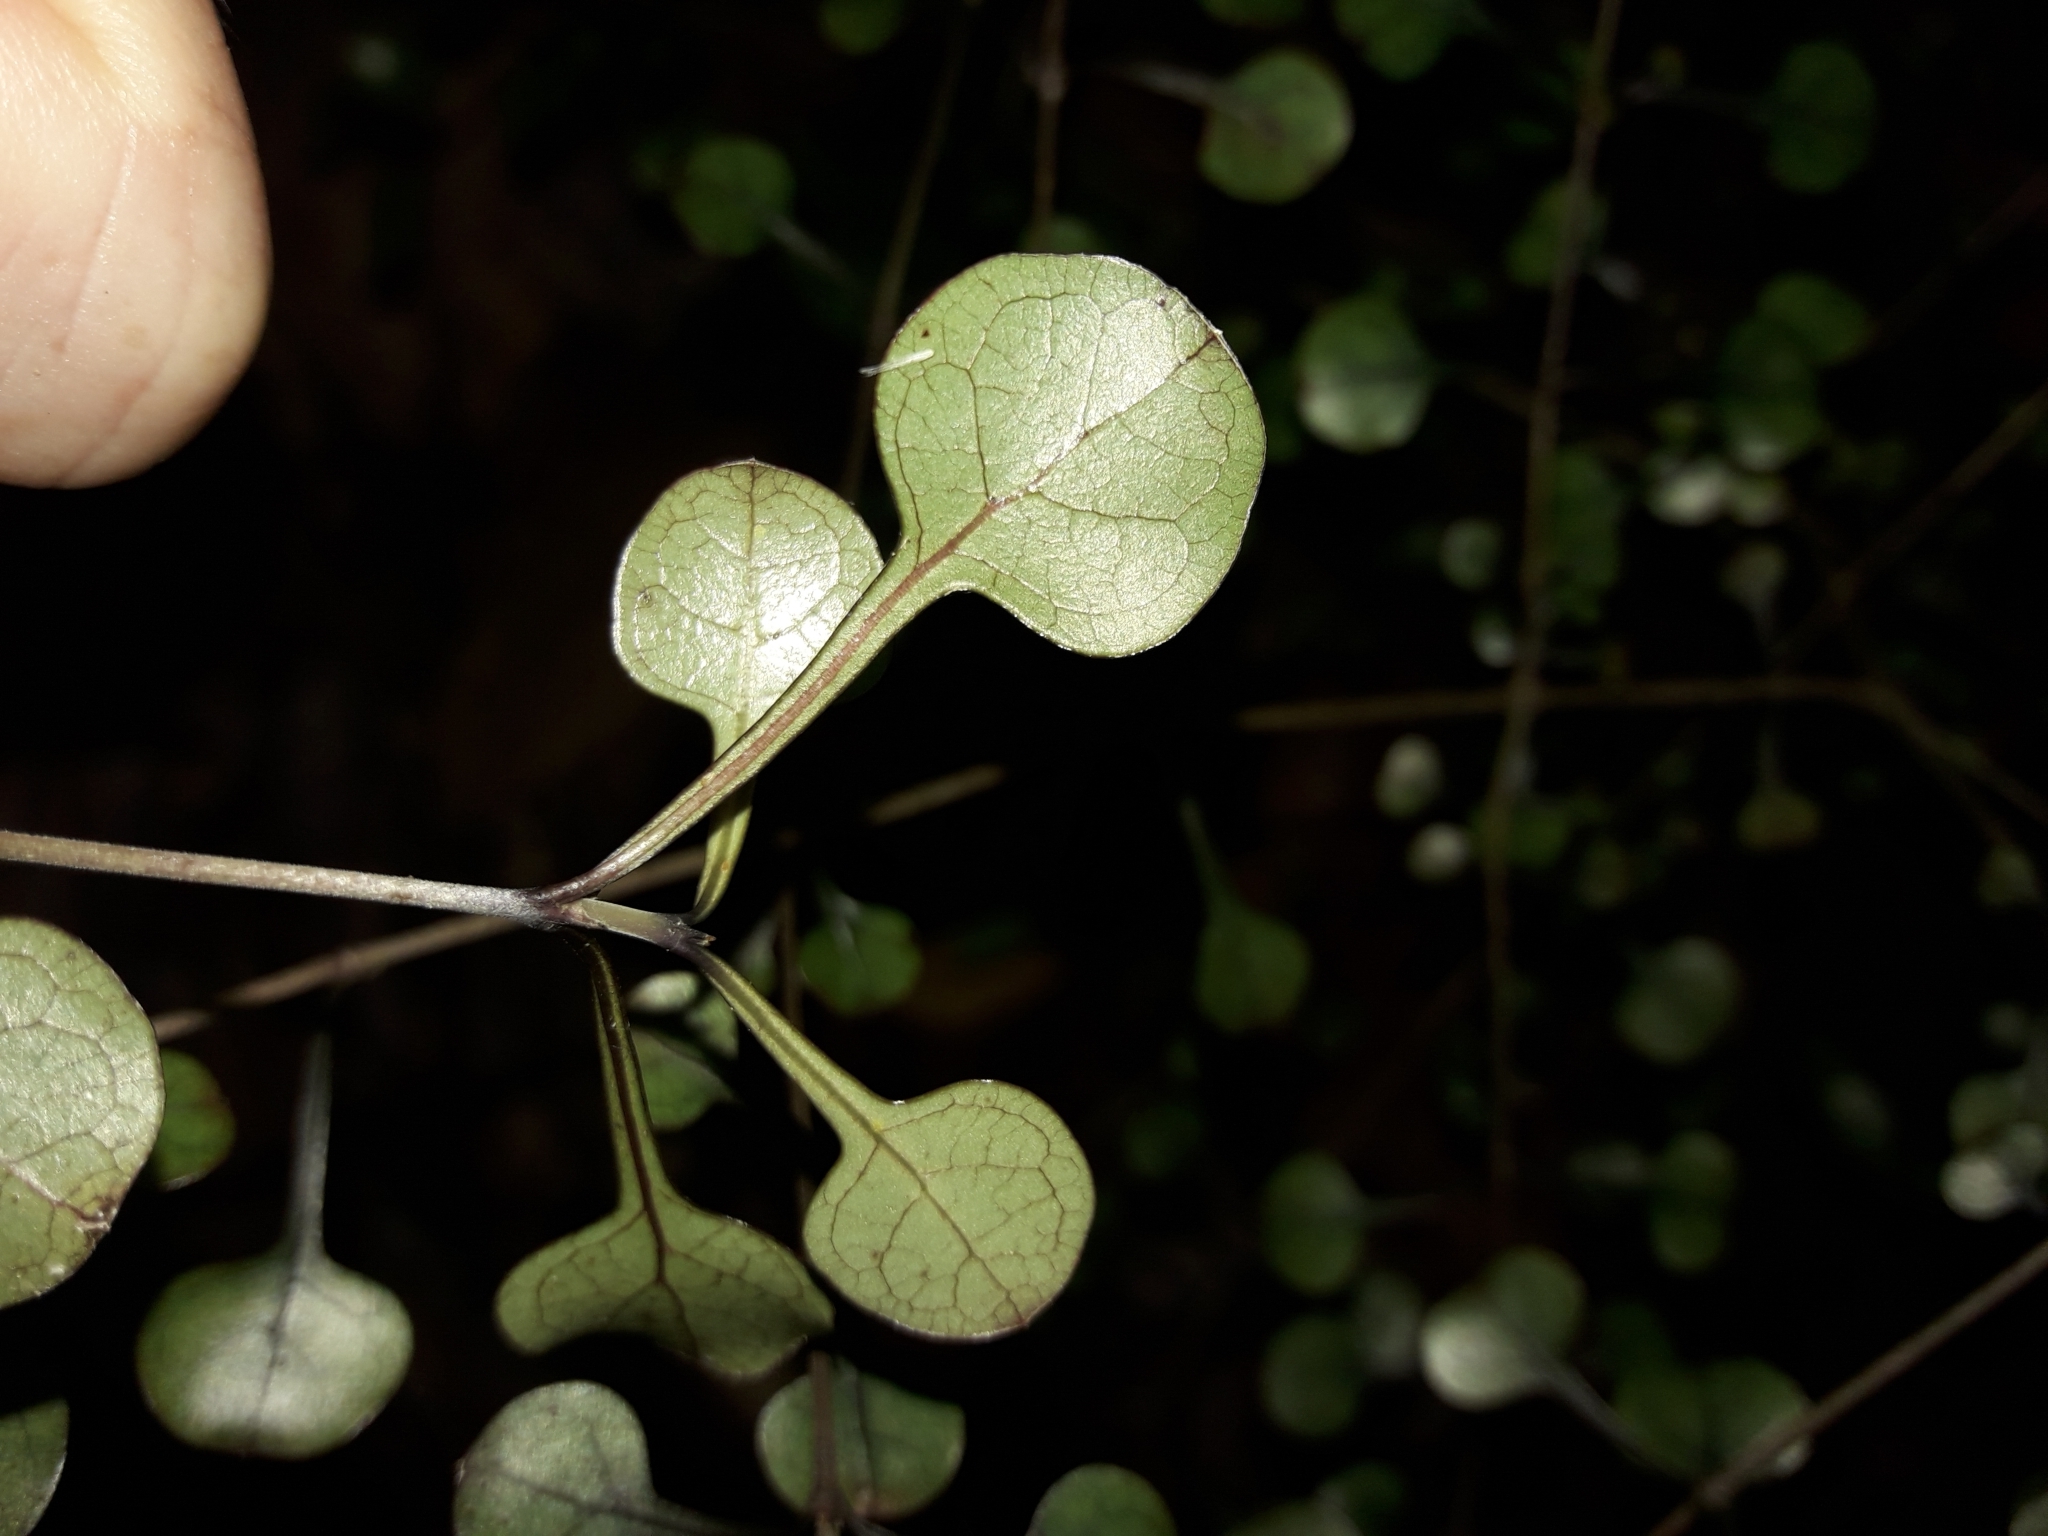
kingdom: Plantae
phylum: Tracheophyta
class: Magnoliopsida
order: Gentianales
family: Rubiaceae
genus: Coprosma
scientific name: Coprosma spathulata
